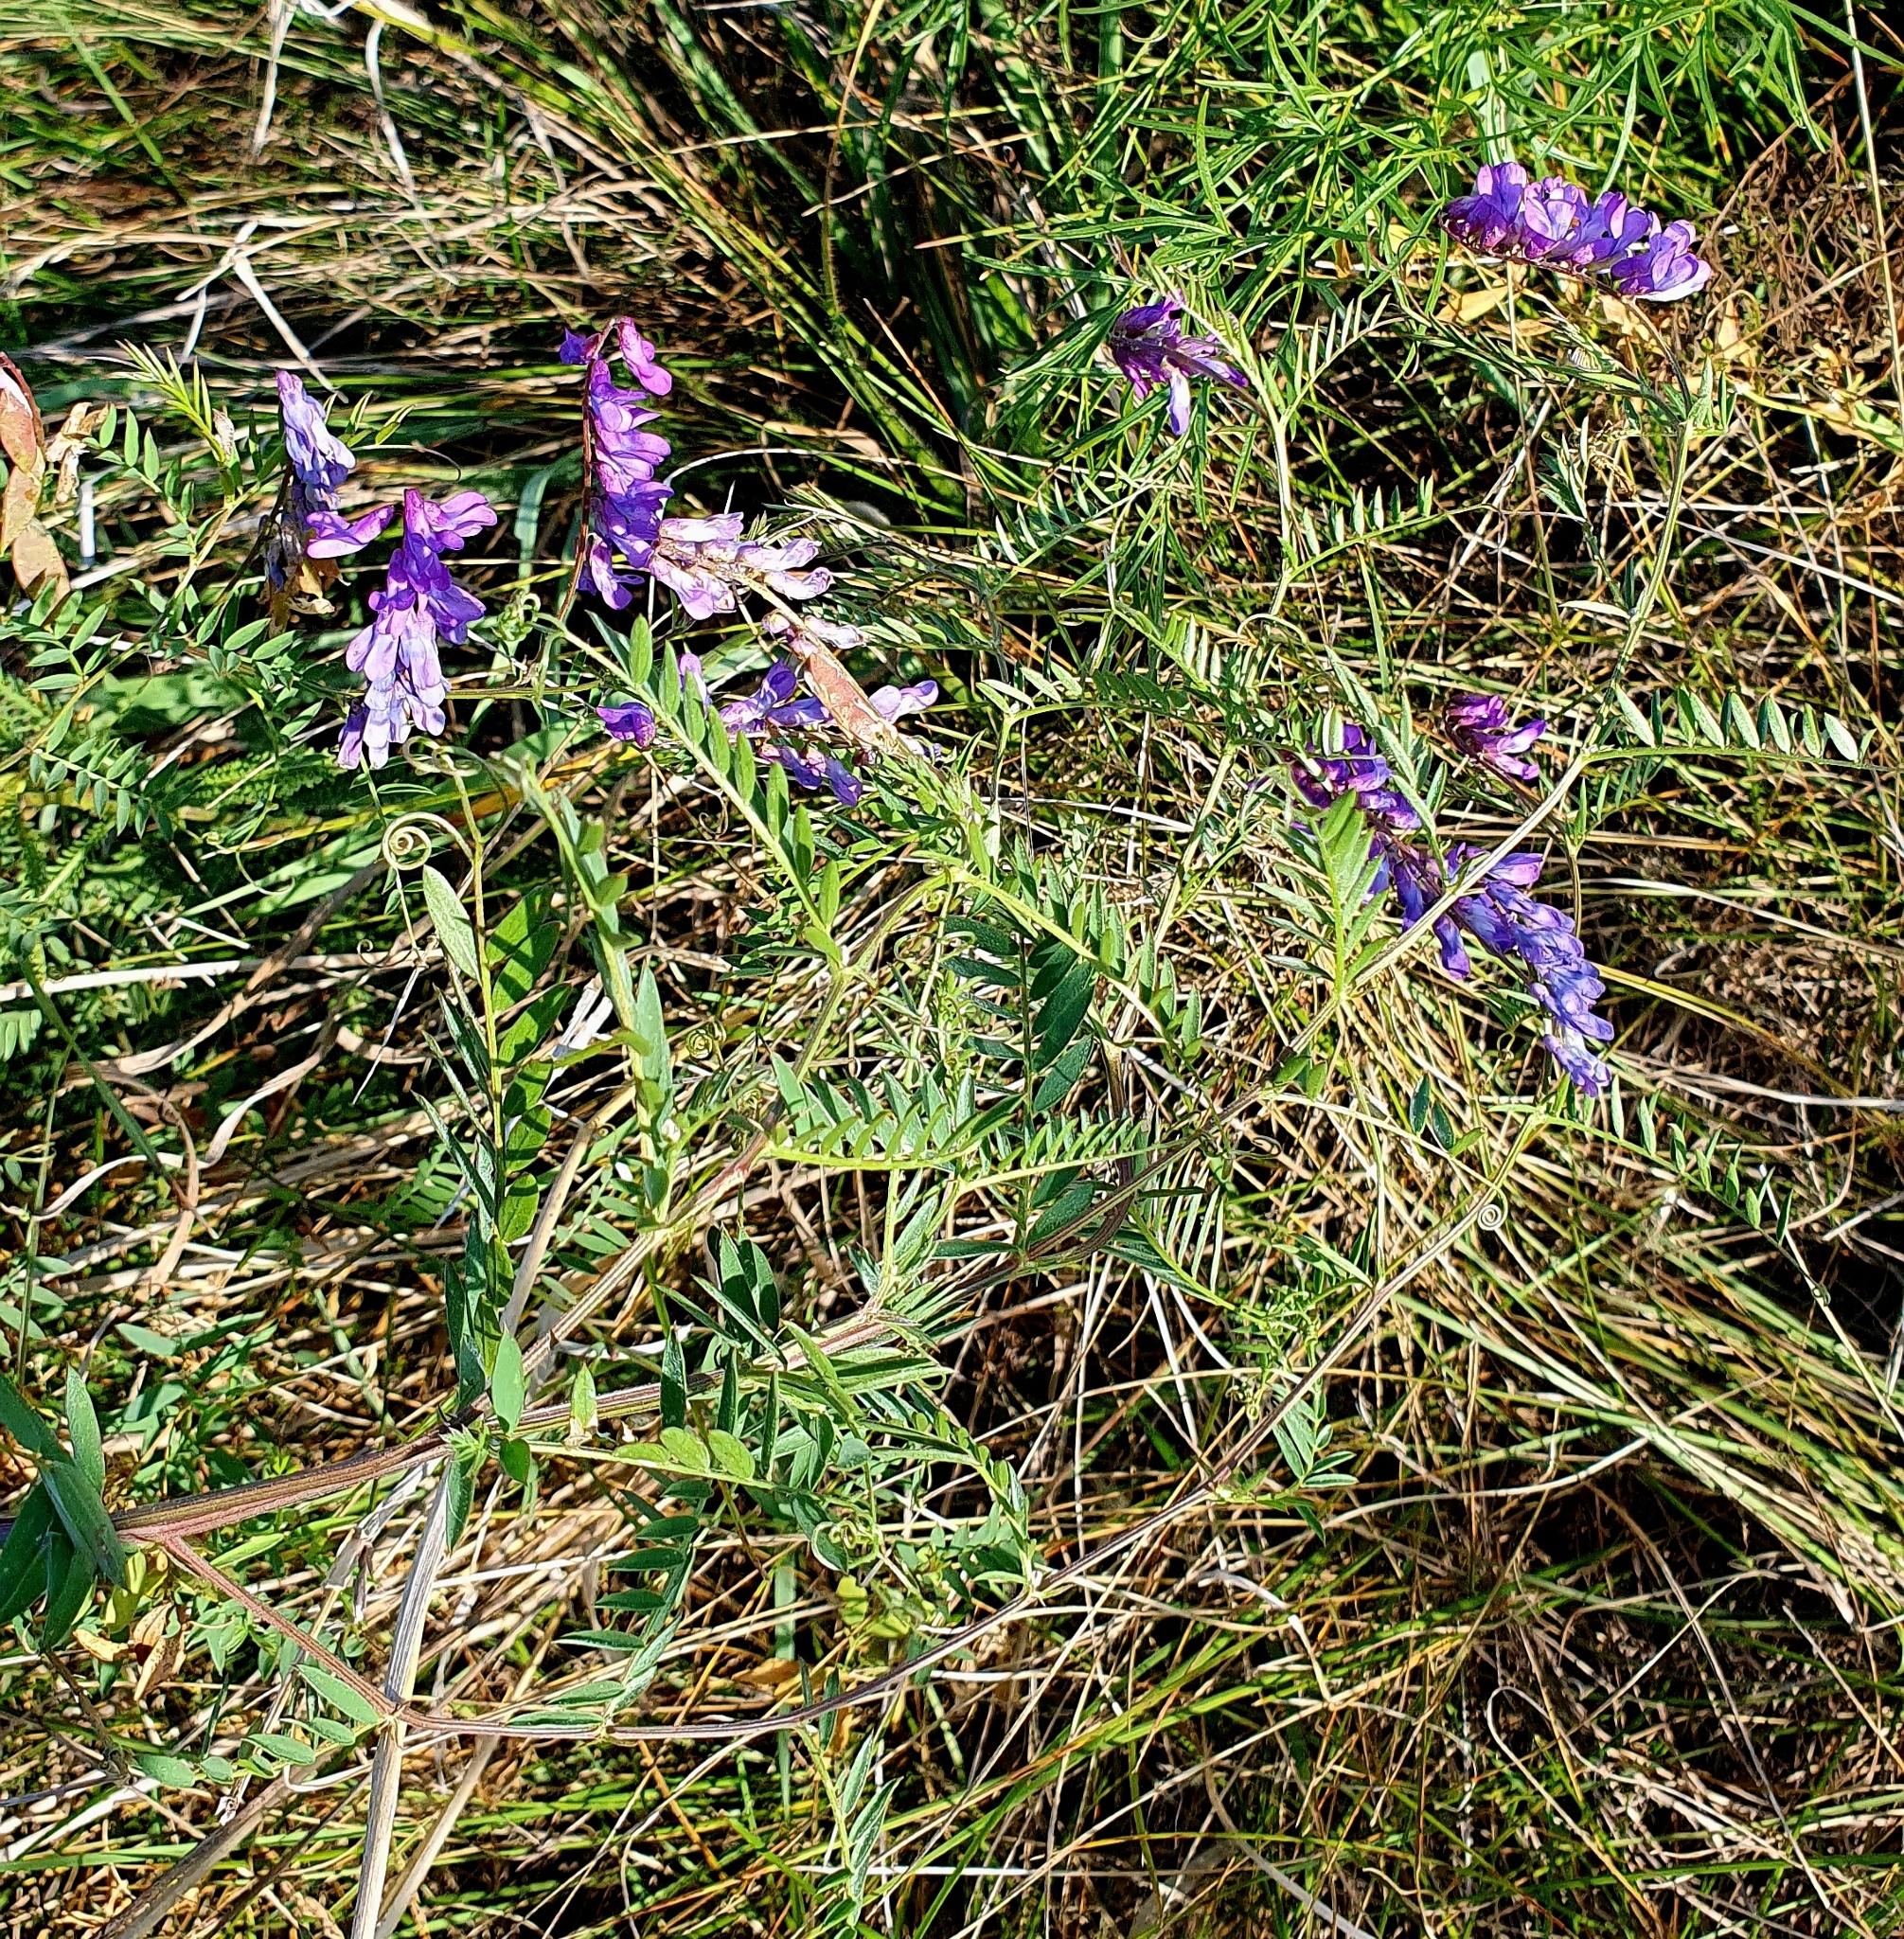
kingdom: Plantae
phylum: Tracheophyta
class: Magnoliopsida
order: Fabales
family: Fabaceae
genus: Vicia
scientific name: Vicia cracca
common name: Bird vetch
